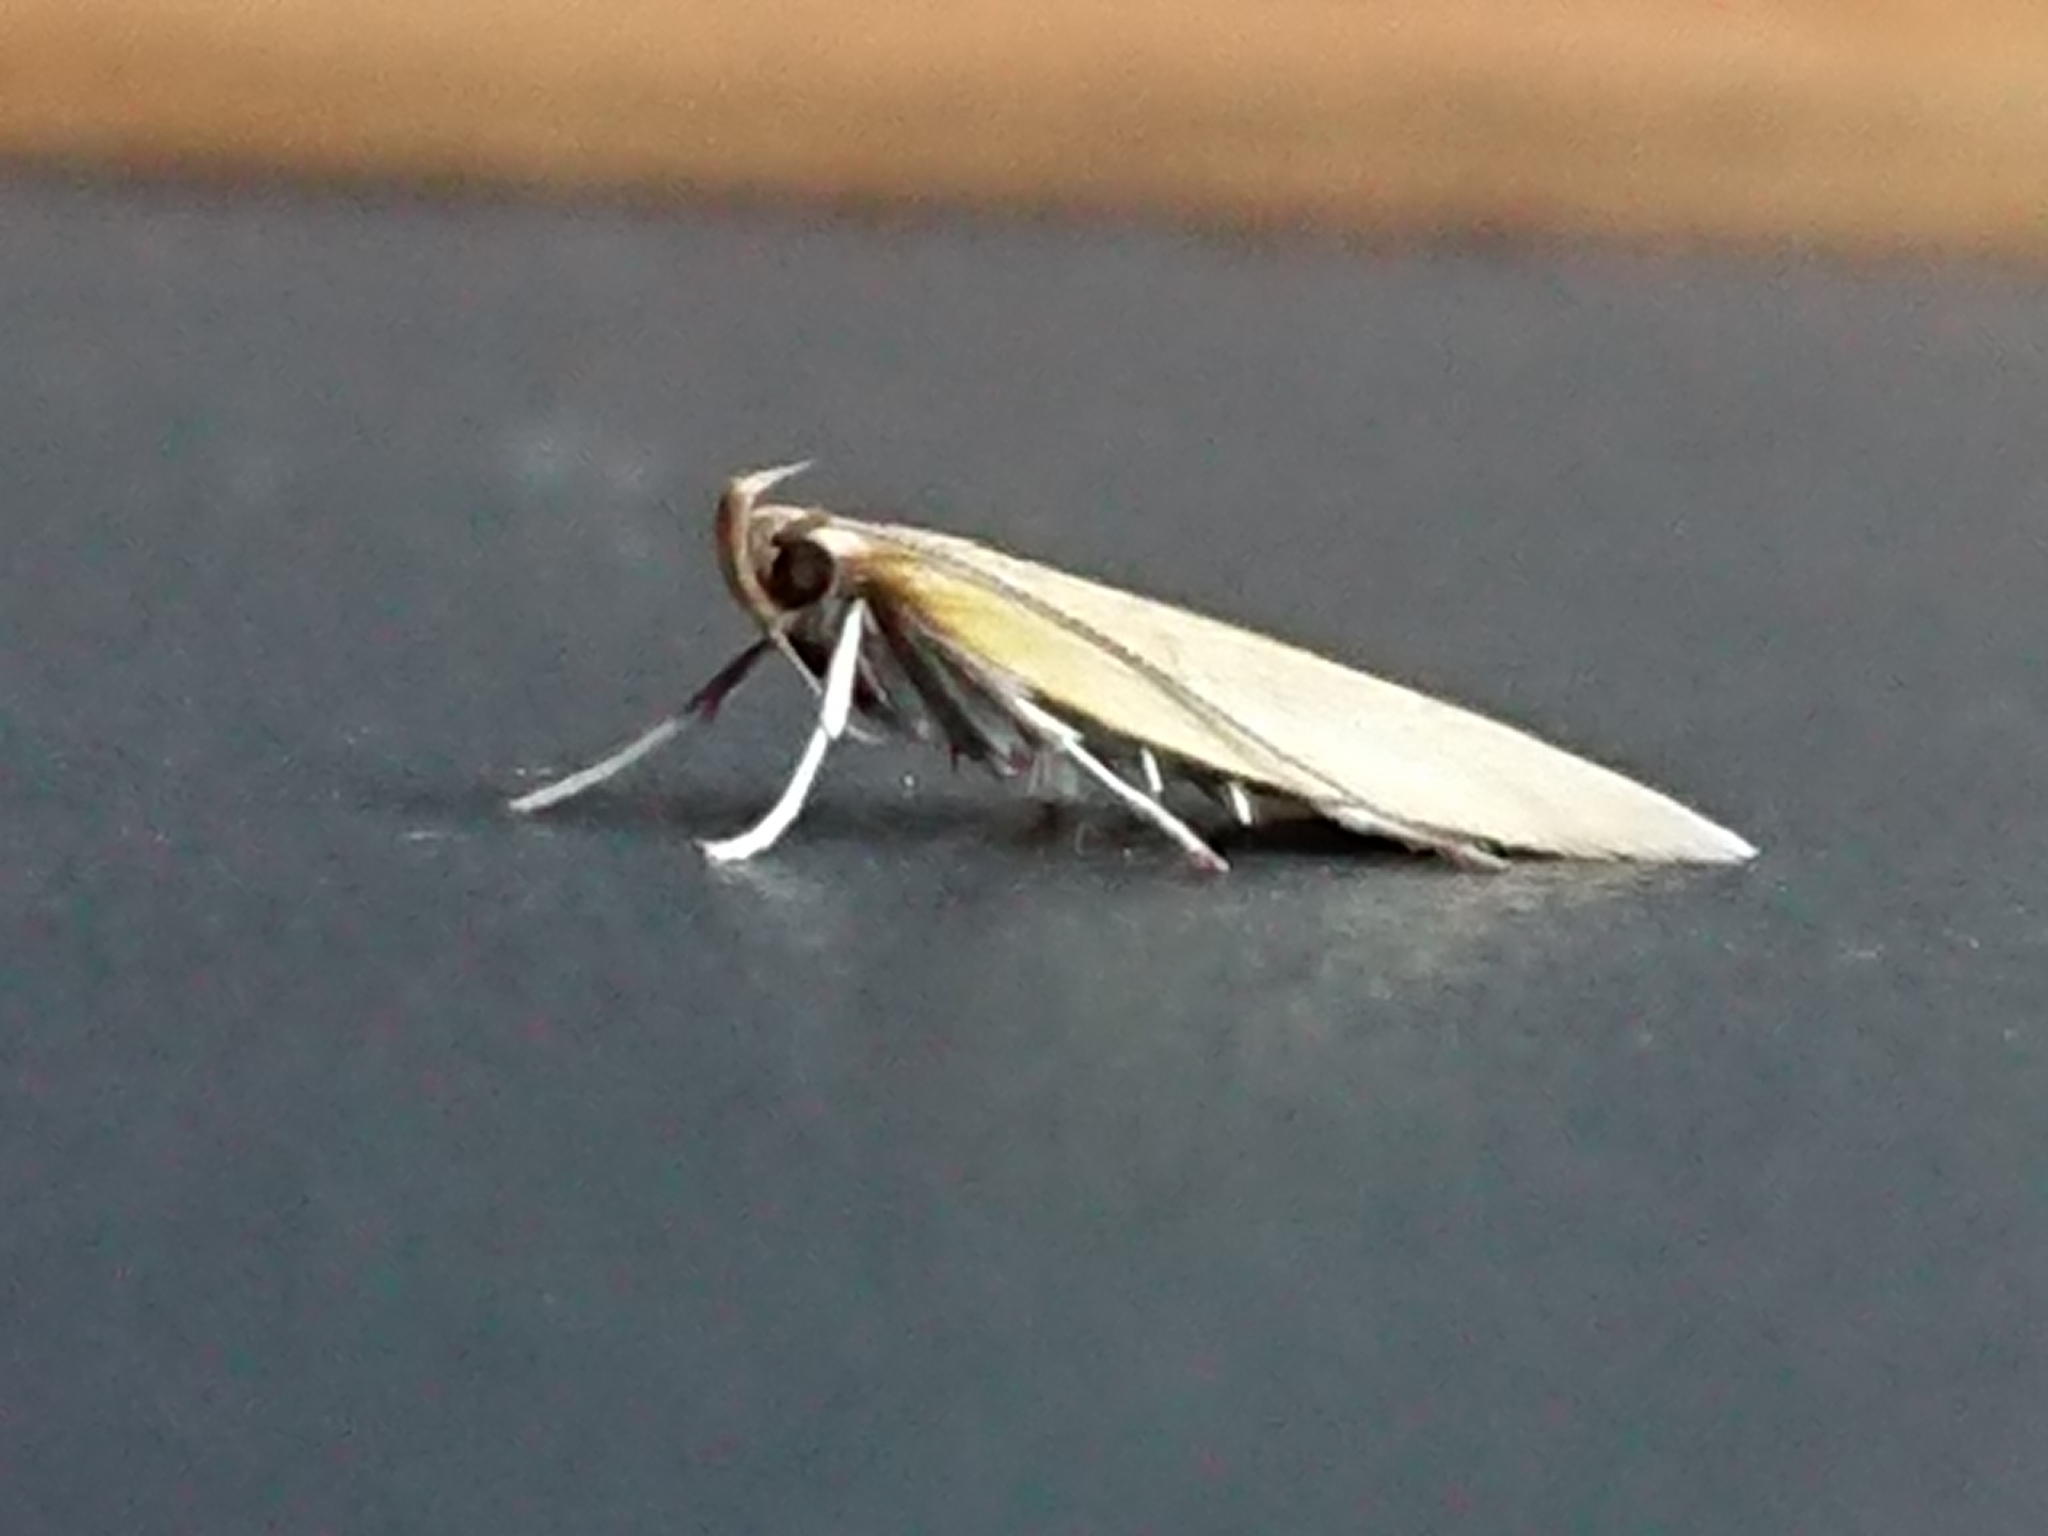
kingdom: Animalia
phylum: Arthropoda
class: Insecta
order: Lepidoptera
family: Oecophoridae
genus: Gymnobathra
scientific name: Gymnobathra parca
